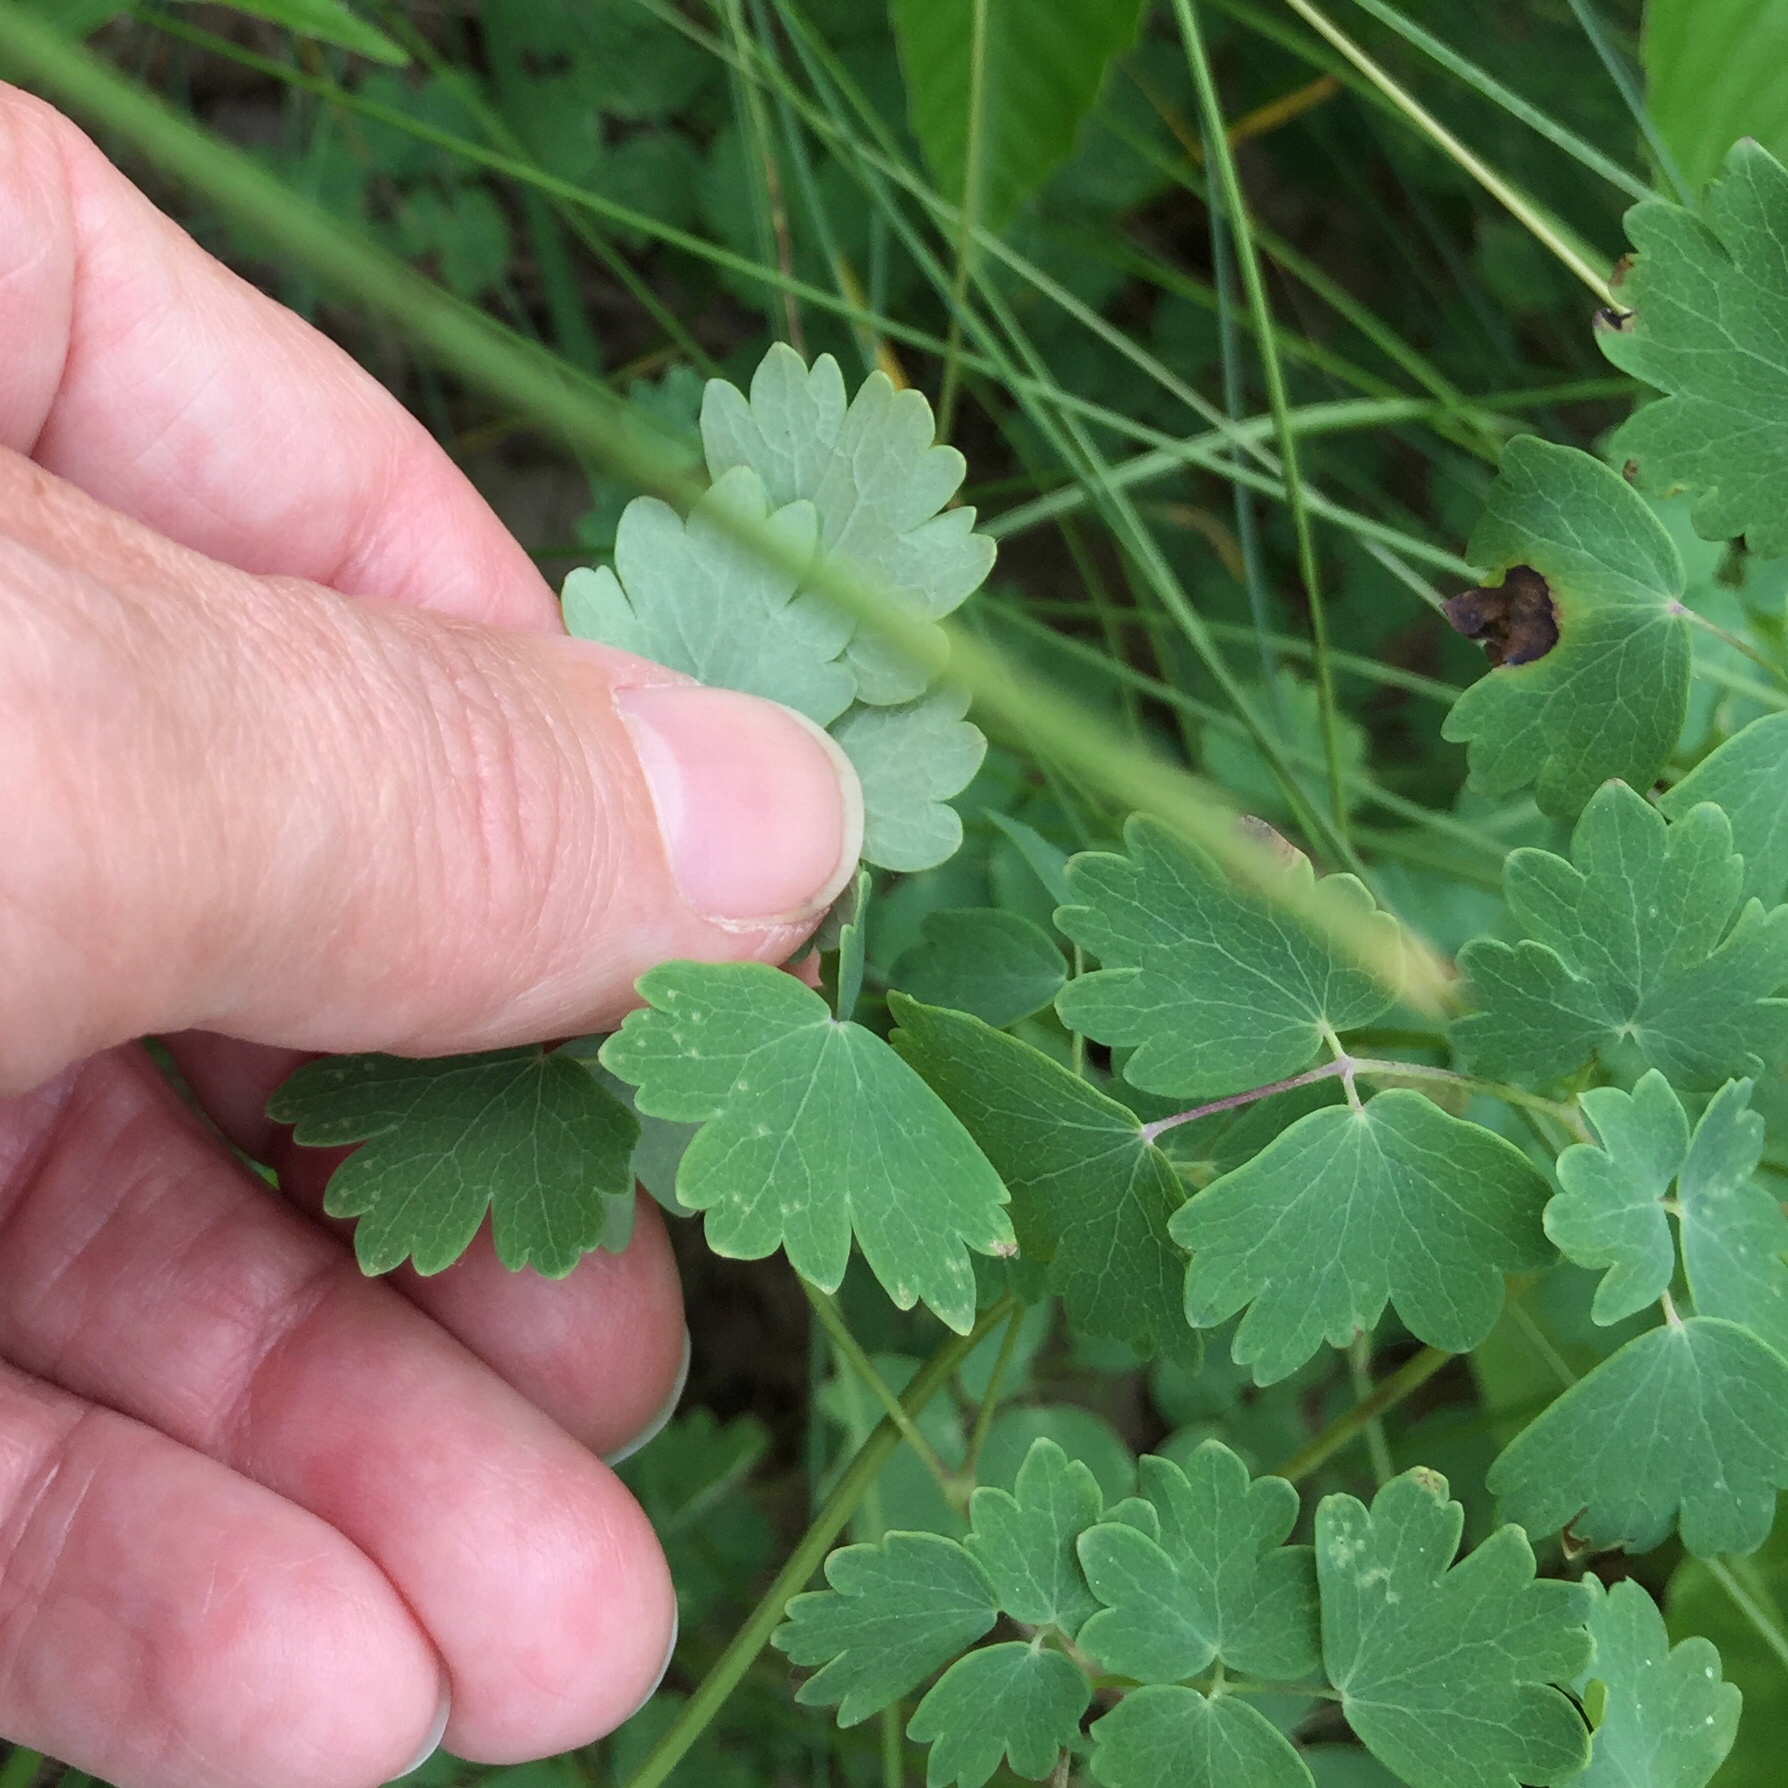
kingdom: Plantae
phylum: Tracheophyta
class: Magnoliopsida
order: Ranunculales
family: Ranunculaceae
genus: Thalictrum
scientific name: Thalictrum venulosum
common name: Early meadow-rue
